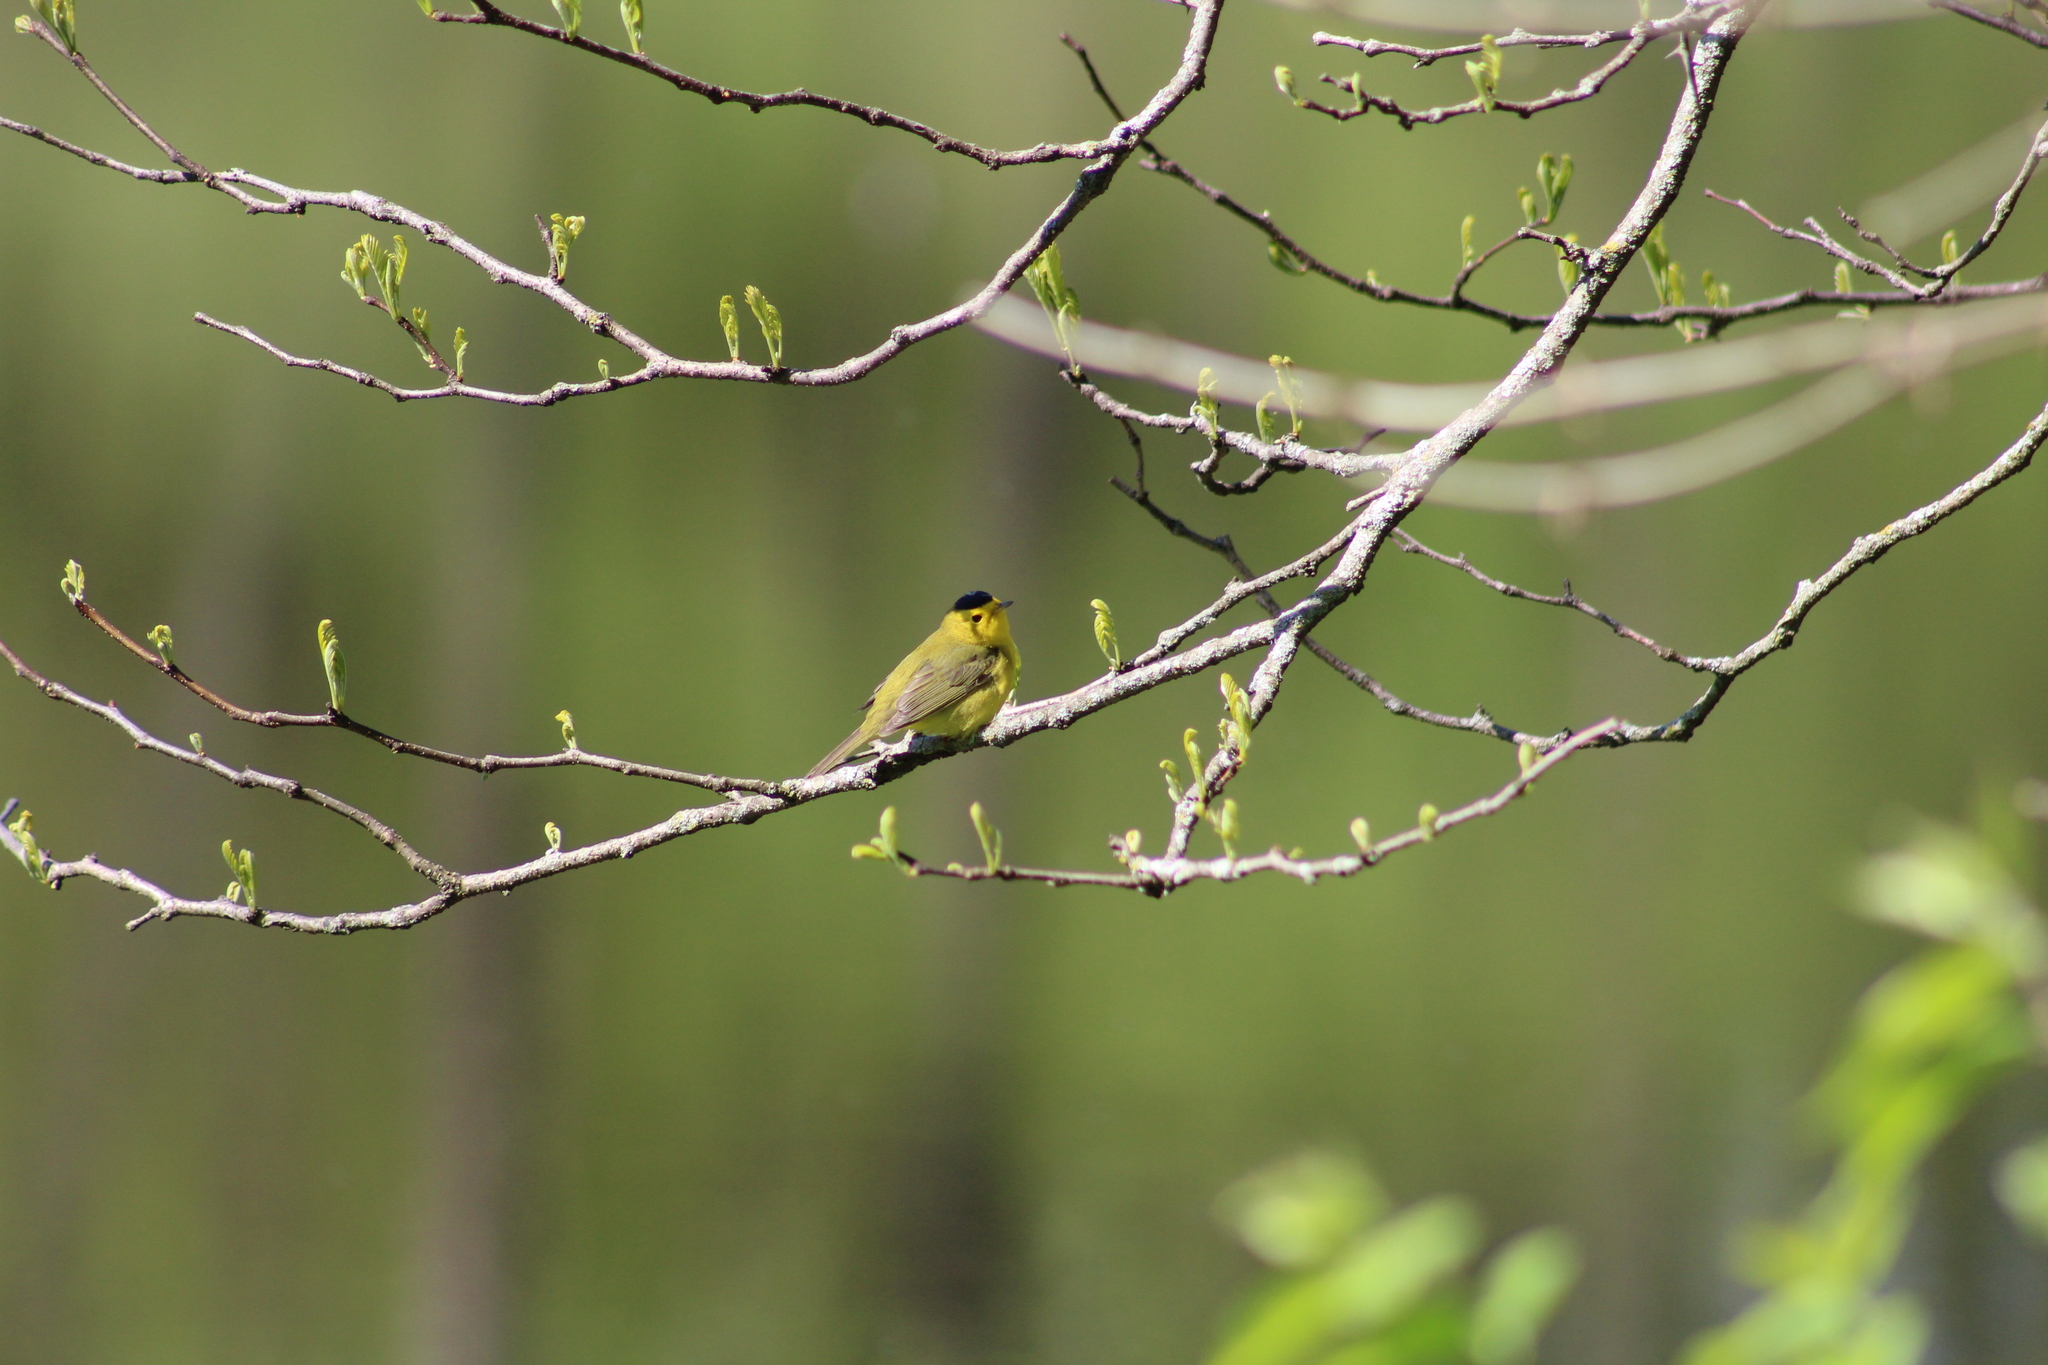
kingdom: Animalia
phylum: Chordata
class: Aves
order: Passeriformes
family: Parulidae
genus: Cardellina
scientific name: Cardellina pusilla
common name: Wilson's warbler
